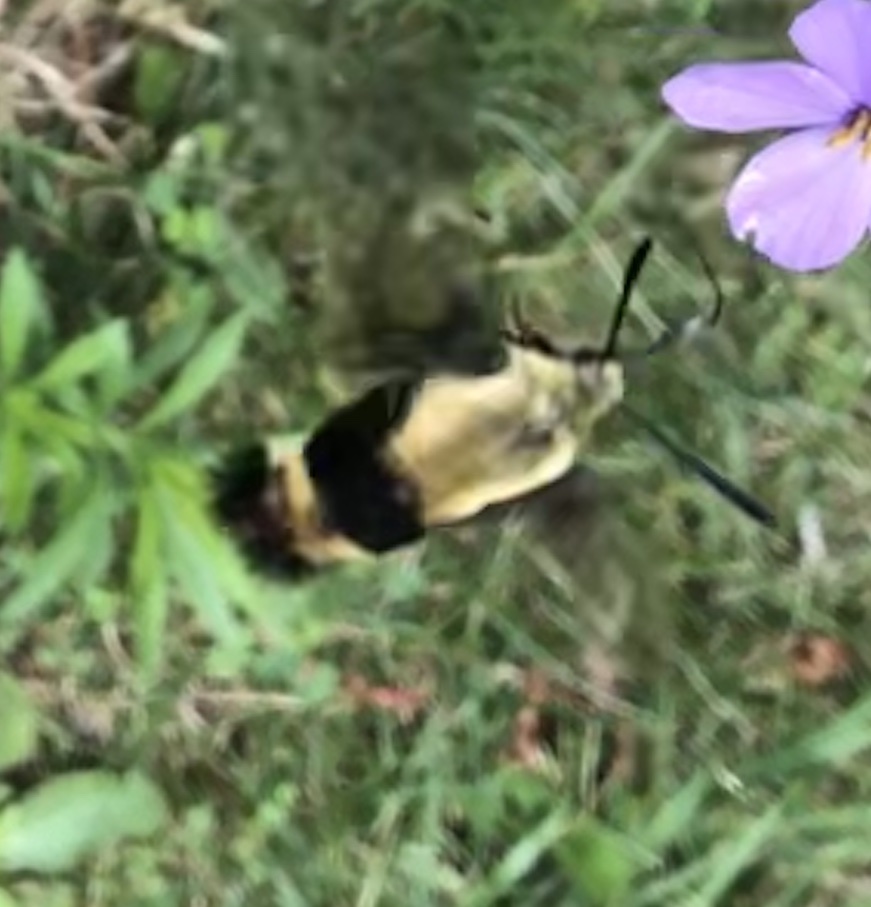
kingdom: Animalia
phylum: Arthropoda
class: Insecta
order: Lepidoptera
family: Sphingidae
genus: Hemaris
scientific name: Hemaris diffinis
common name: Bumblebee moth
